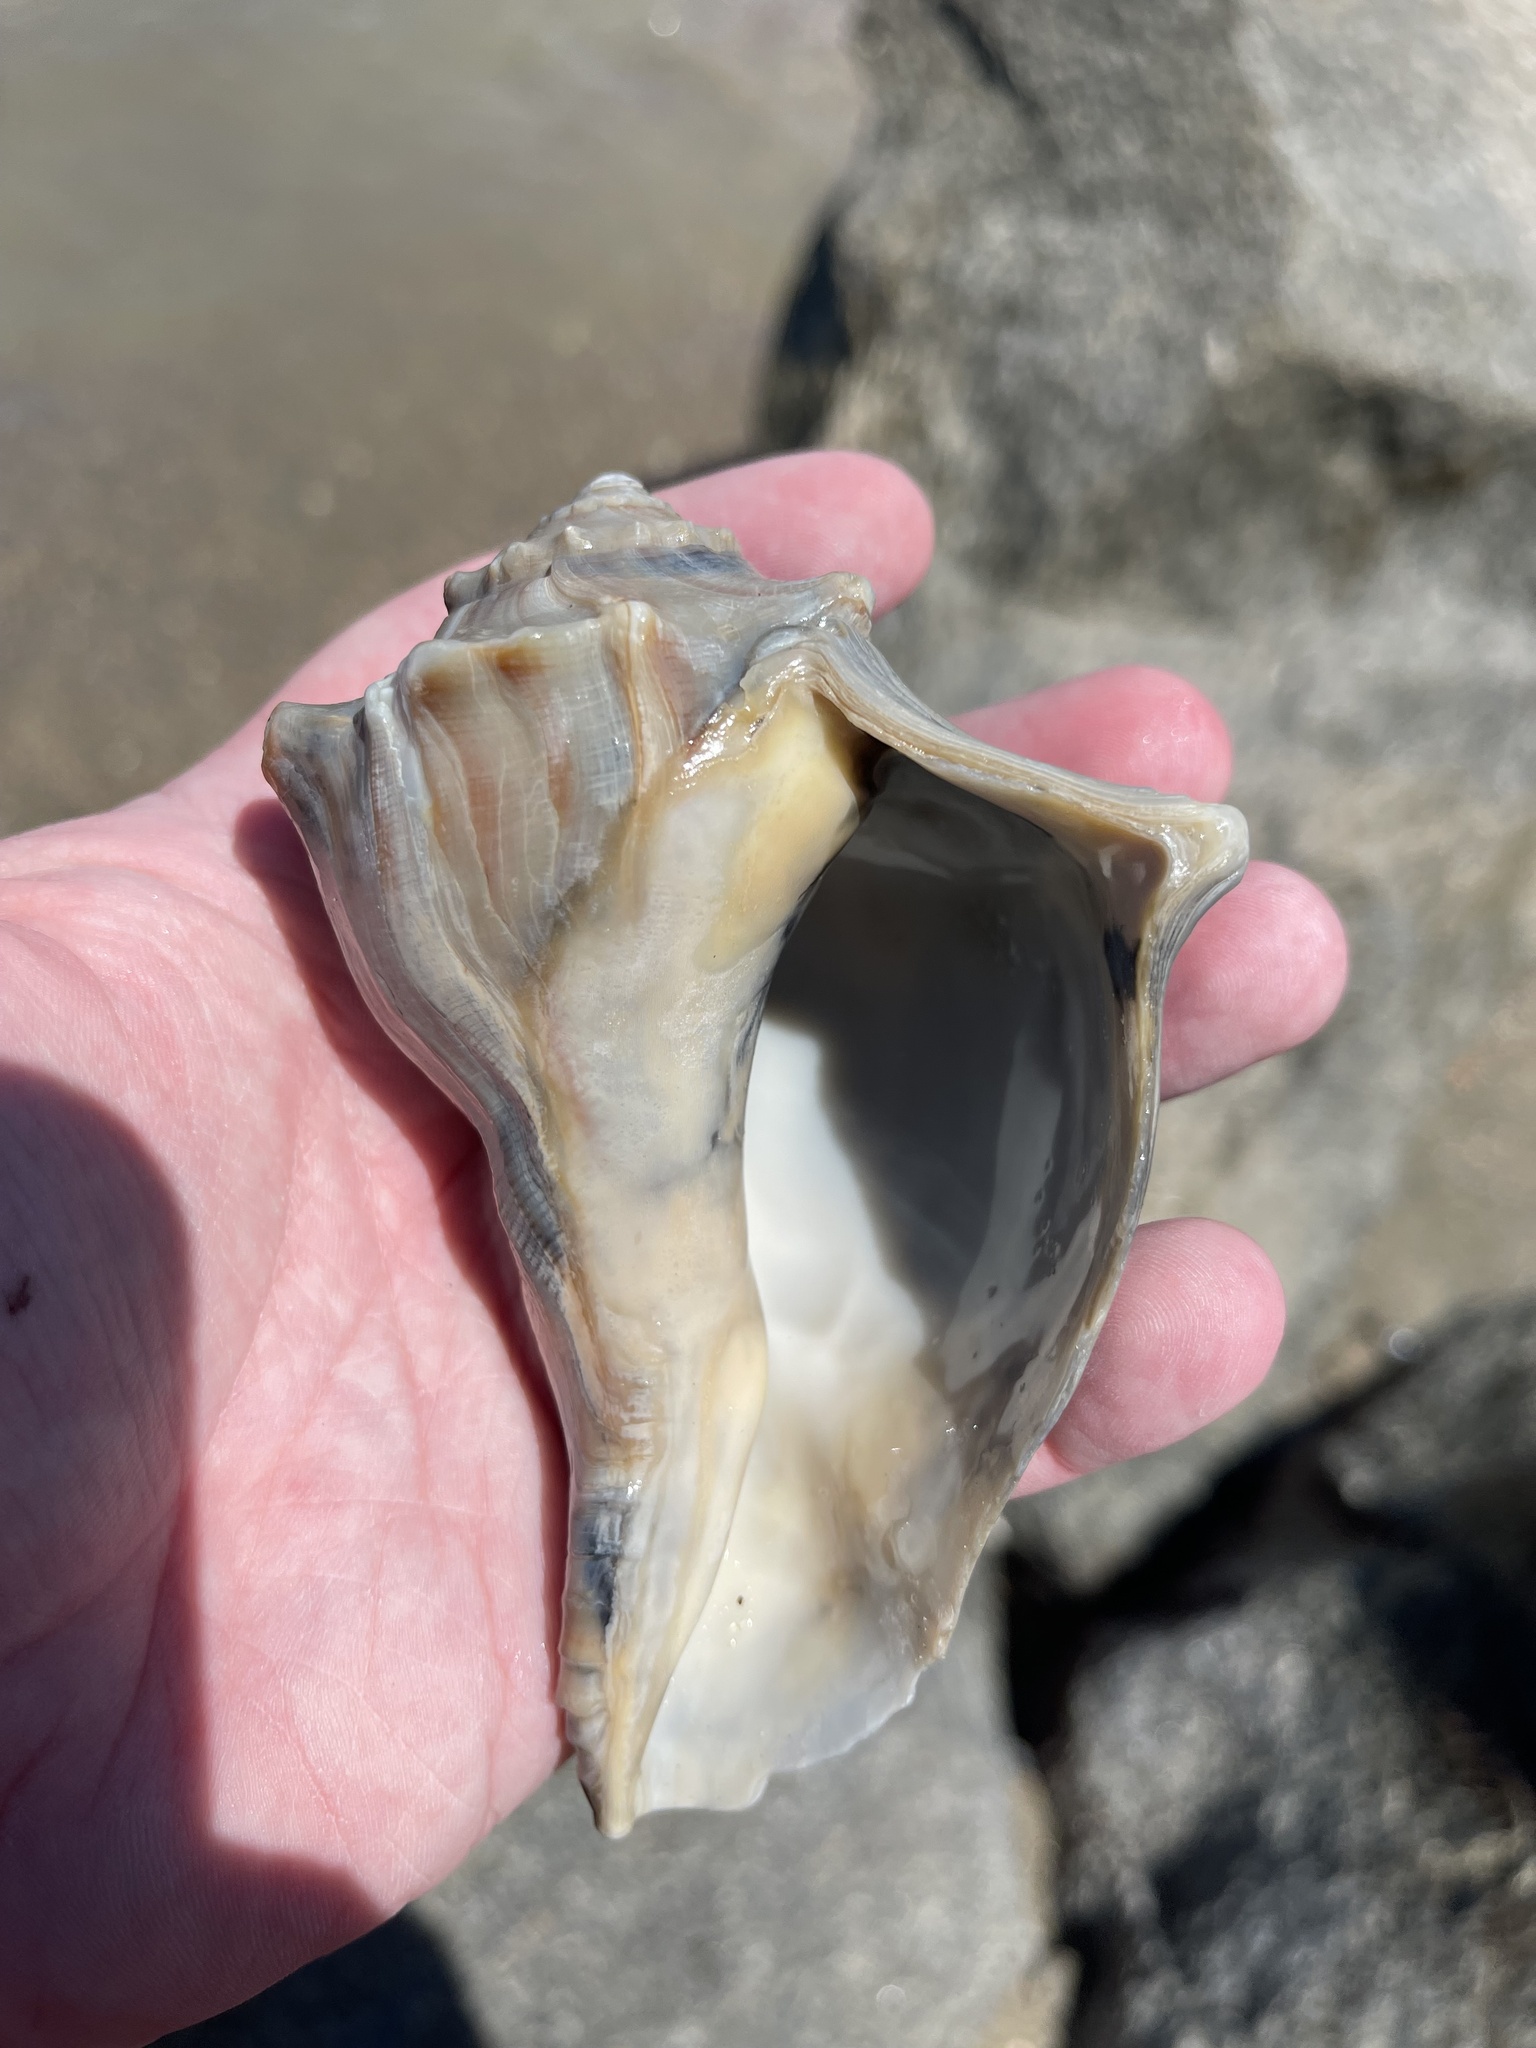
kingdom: Animalia
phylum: Mollusca
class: Gastropoda
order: Neogastropoda
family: Busyconidae
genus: Busycon
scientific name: Busycon carica
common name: Knobbed whelk
